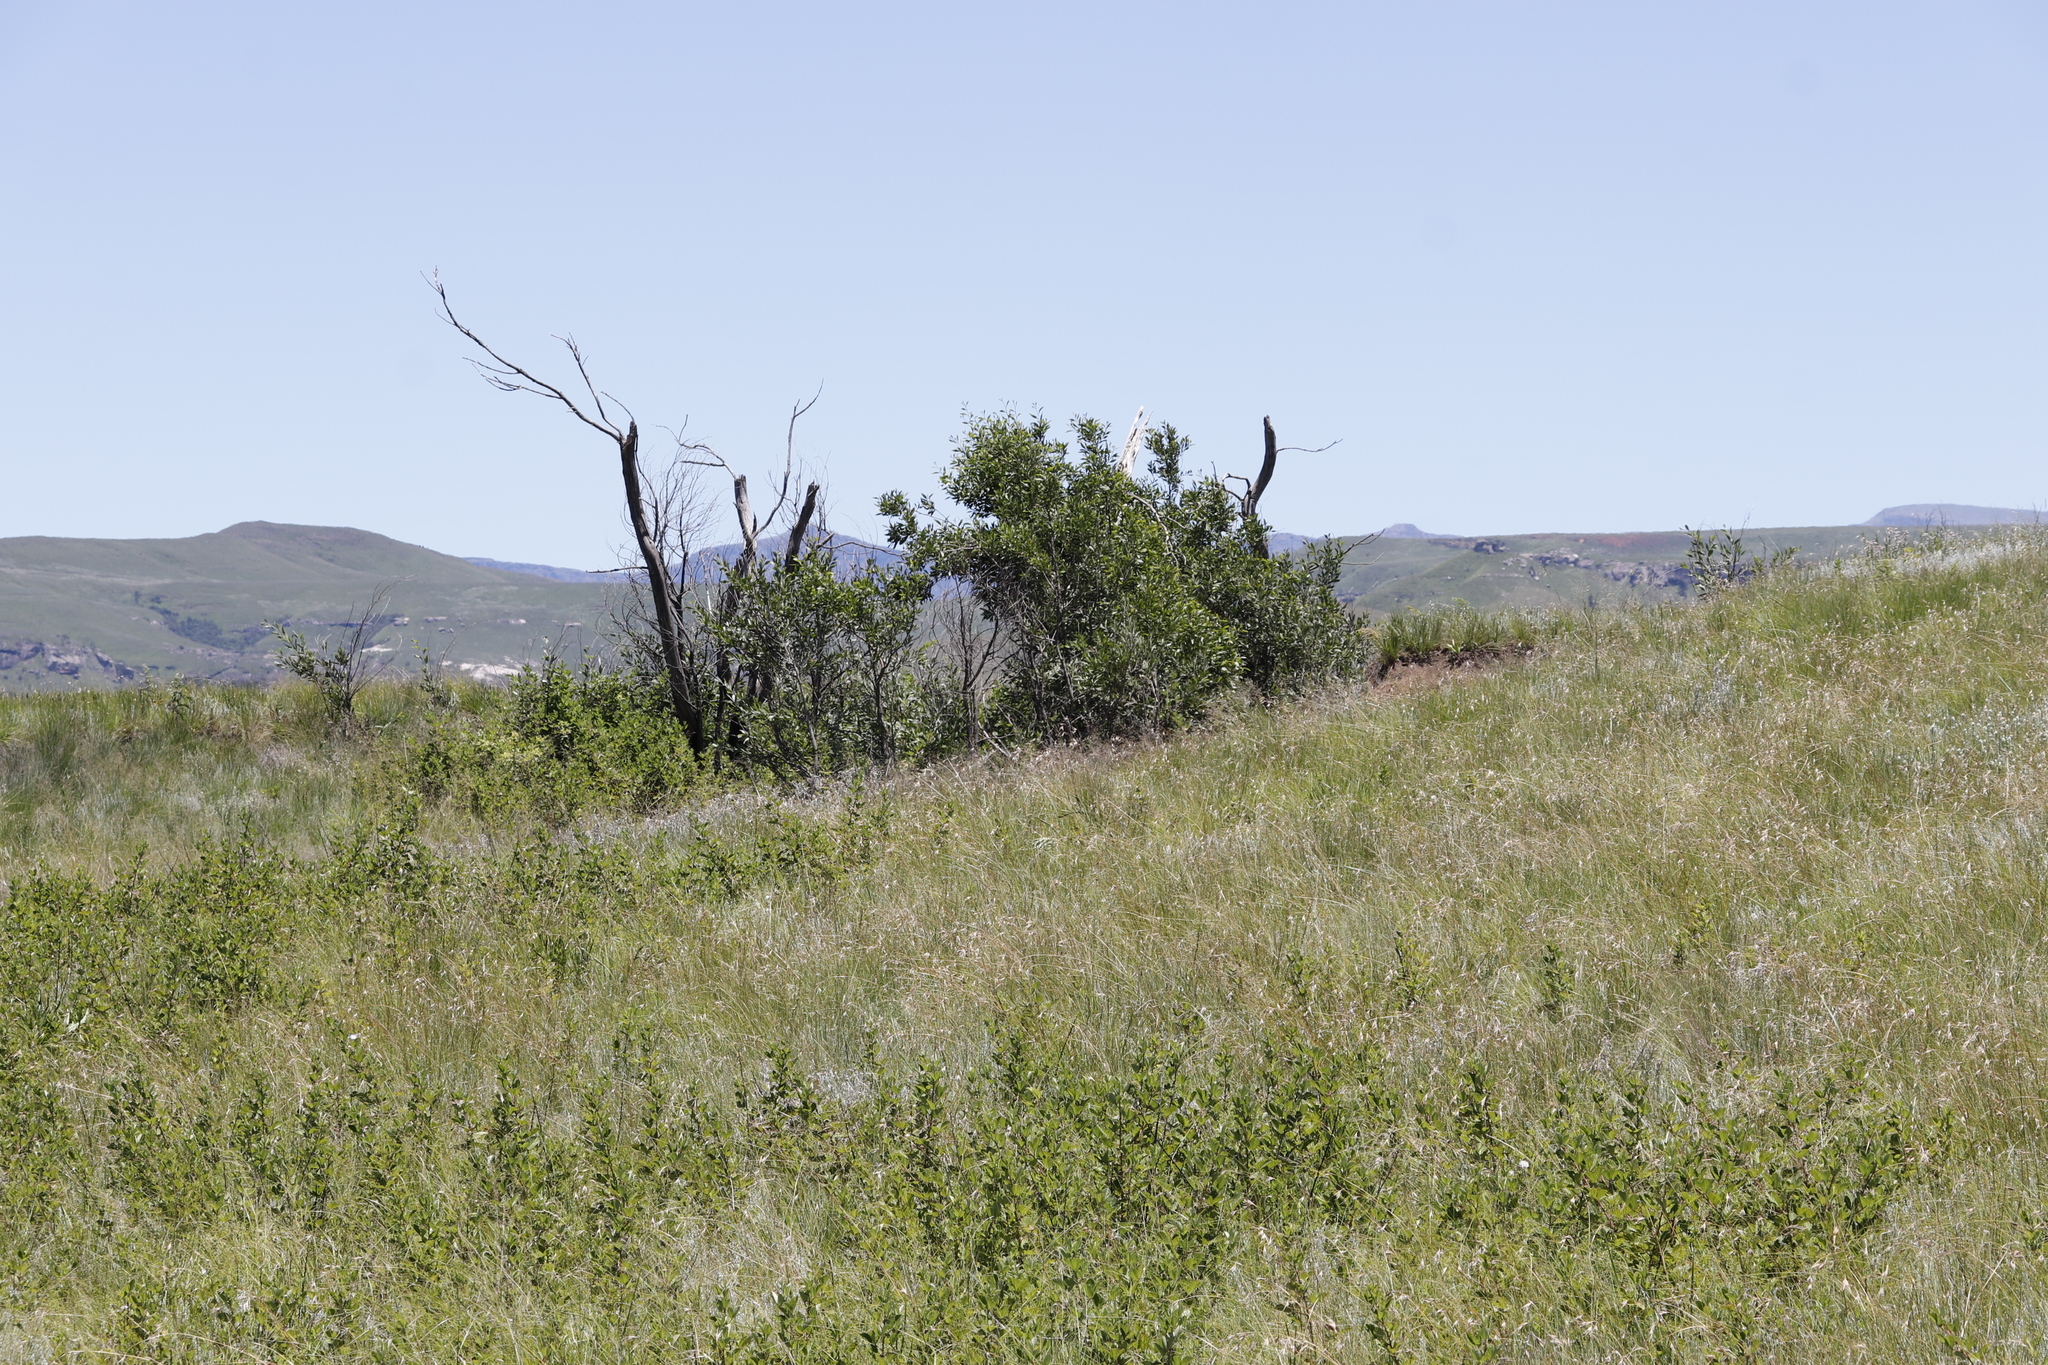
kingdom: Plantae
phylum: Tracheophyta
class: Magnoliopsida
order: Fabales
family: Fabaceae
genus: Acacia
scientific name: Acacia melanoxylon
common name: Blackwood
